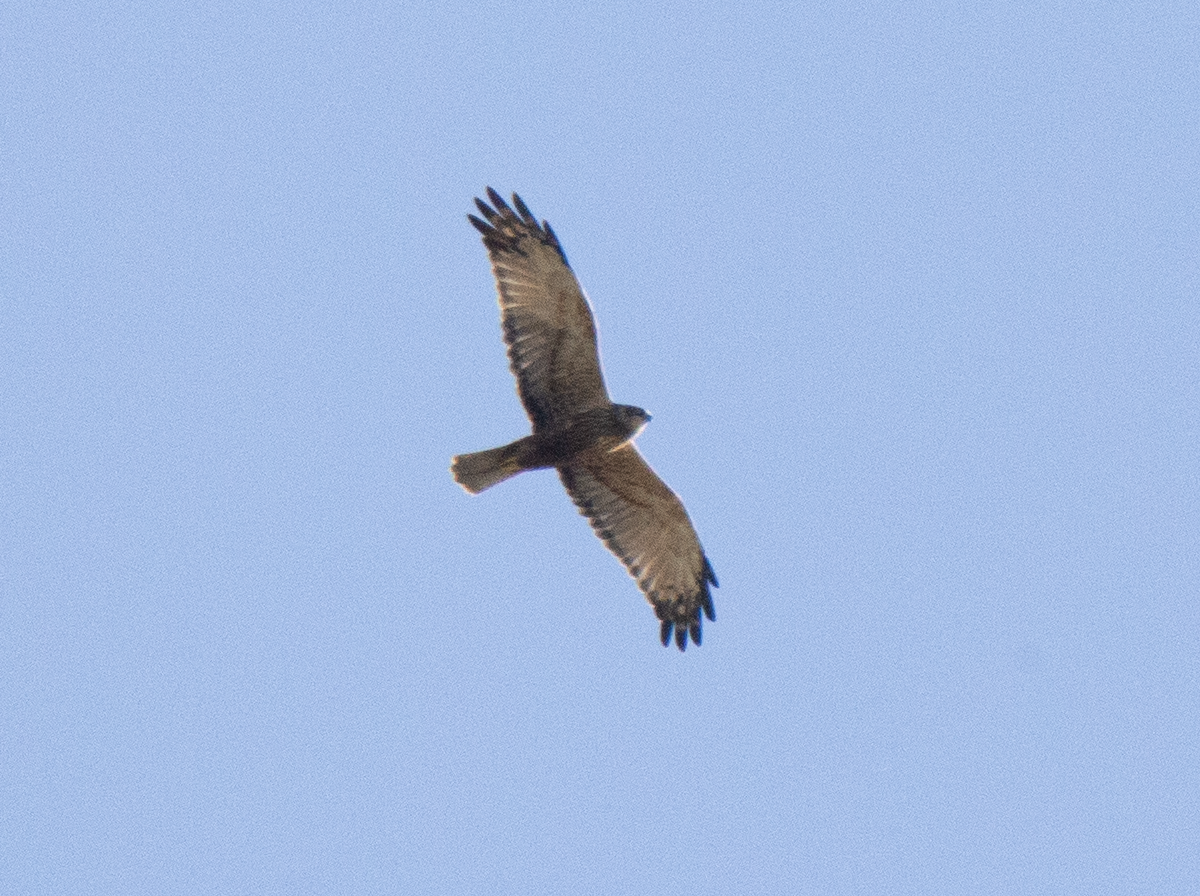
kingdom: Animalia
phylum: Chordata
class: Aves
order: Accipitriformes
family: Accipitridae
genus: Circus
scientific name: Circus aeruginosus
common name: Western marsh harrier
